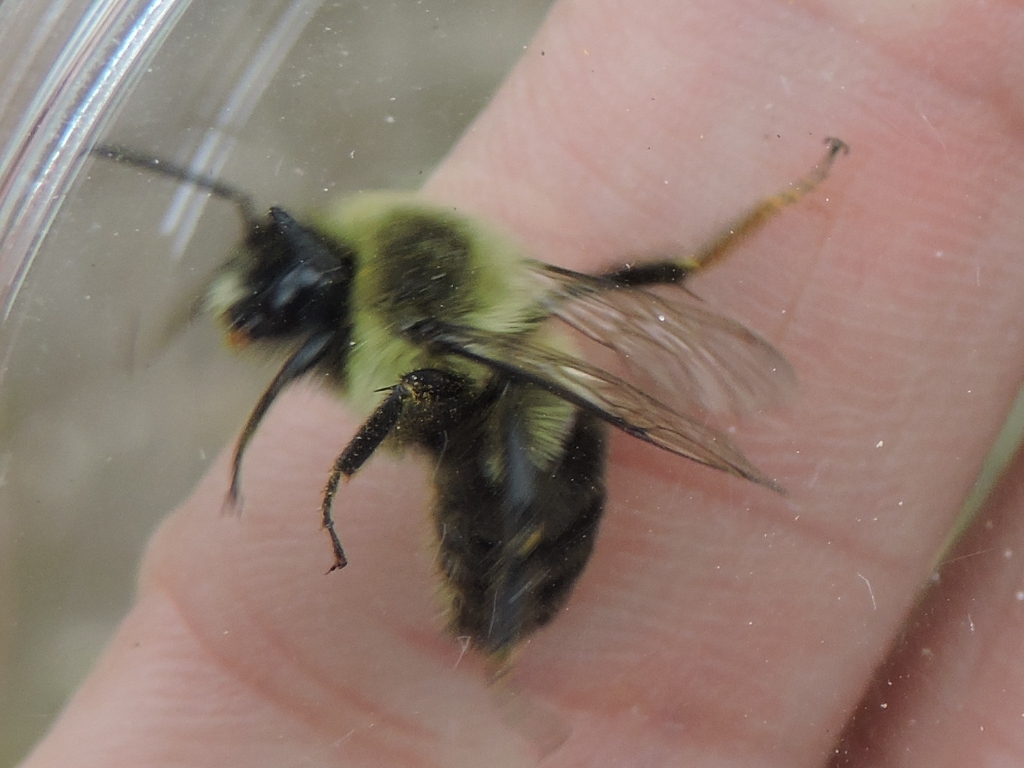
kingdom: Animalia
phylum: Arthropoda
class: Insecta
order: Hymenoptera
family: Apidae
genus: Bombus
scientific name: Bombus impatiens
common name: Common eastern bumble bee
